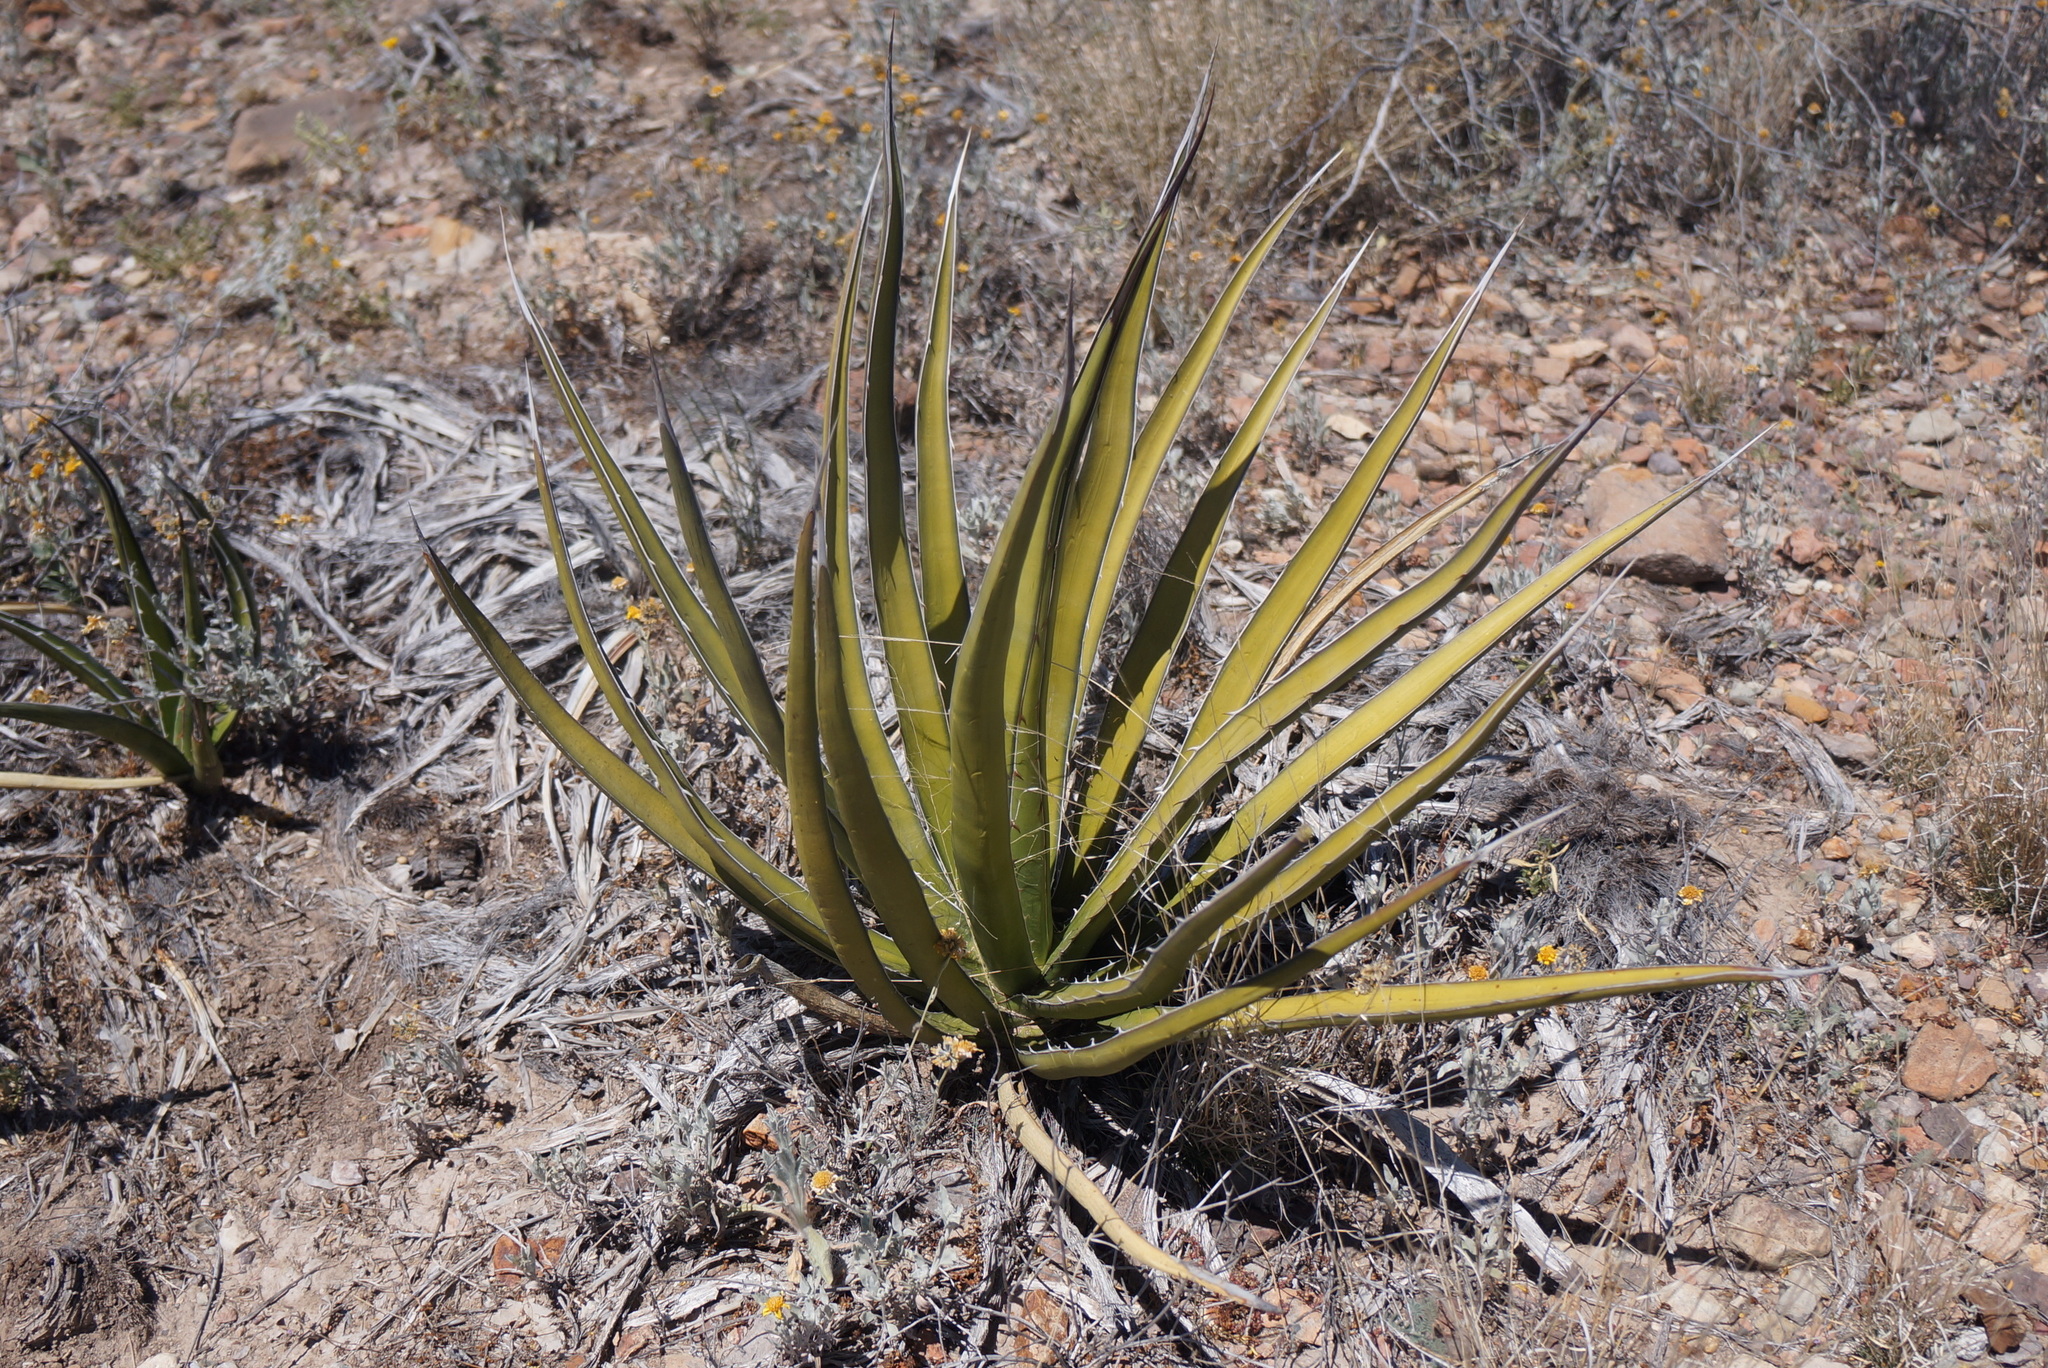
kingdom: Plantae
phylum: Tracheophyta
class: Liliopsida
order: Asparagales
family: Asparagaceae
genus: Agave
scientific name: Agave lechuguilla
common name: Lecheguilla agave
